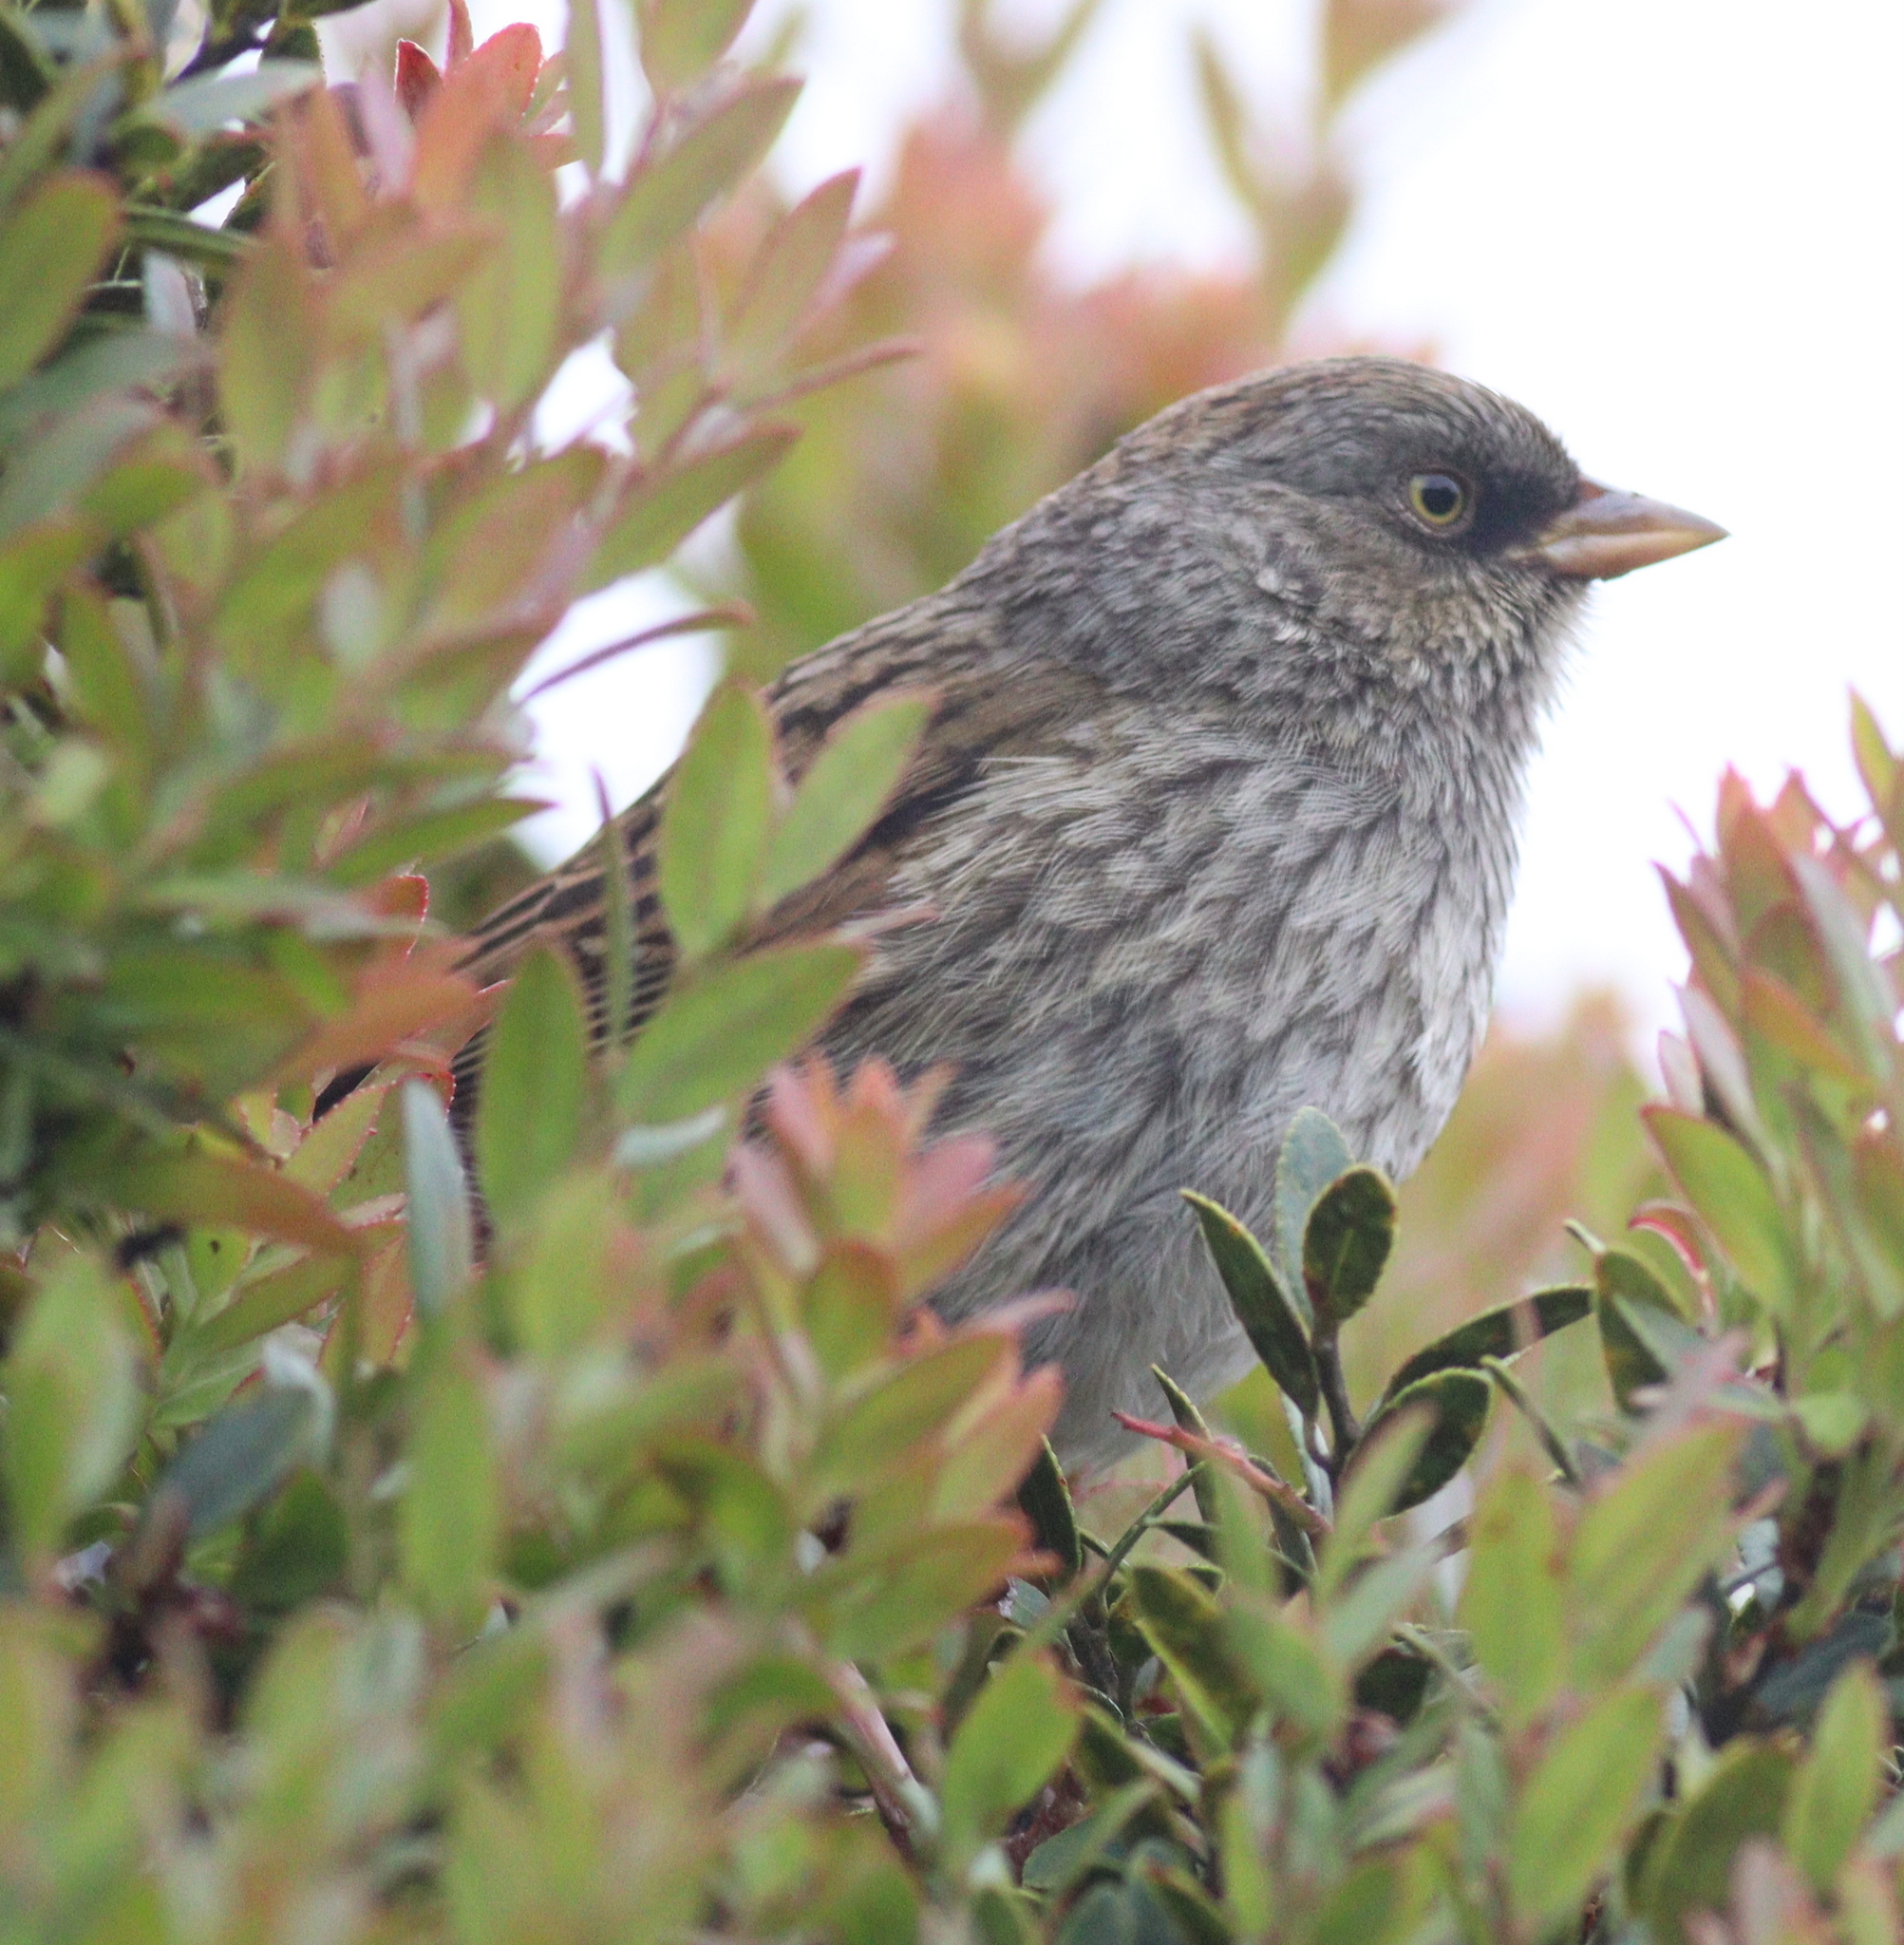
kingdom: Animalia
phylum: Chordata
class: Aves
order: Passeriformes
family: Passerellidae
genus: Junco
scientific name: Junco vulcani
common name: Volcano junco
